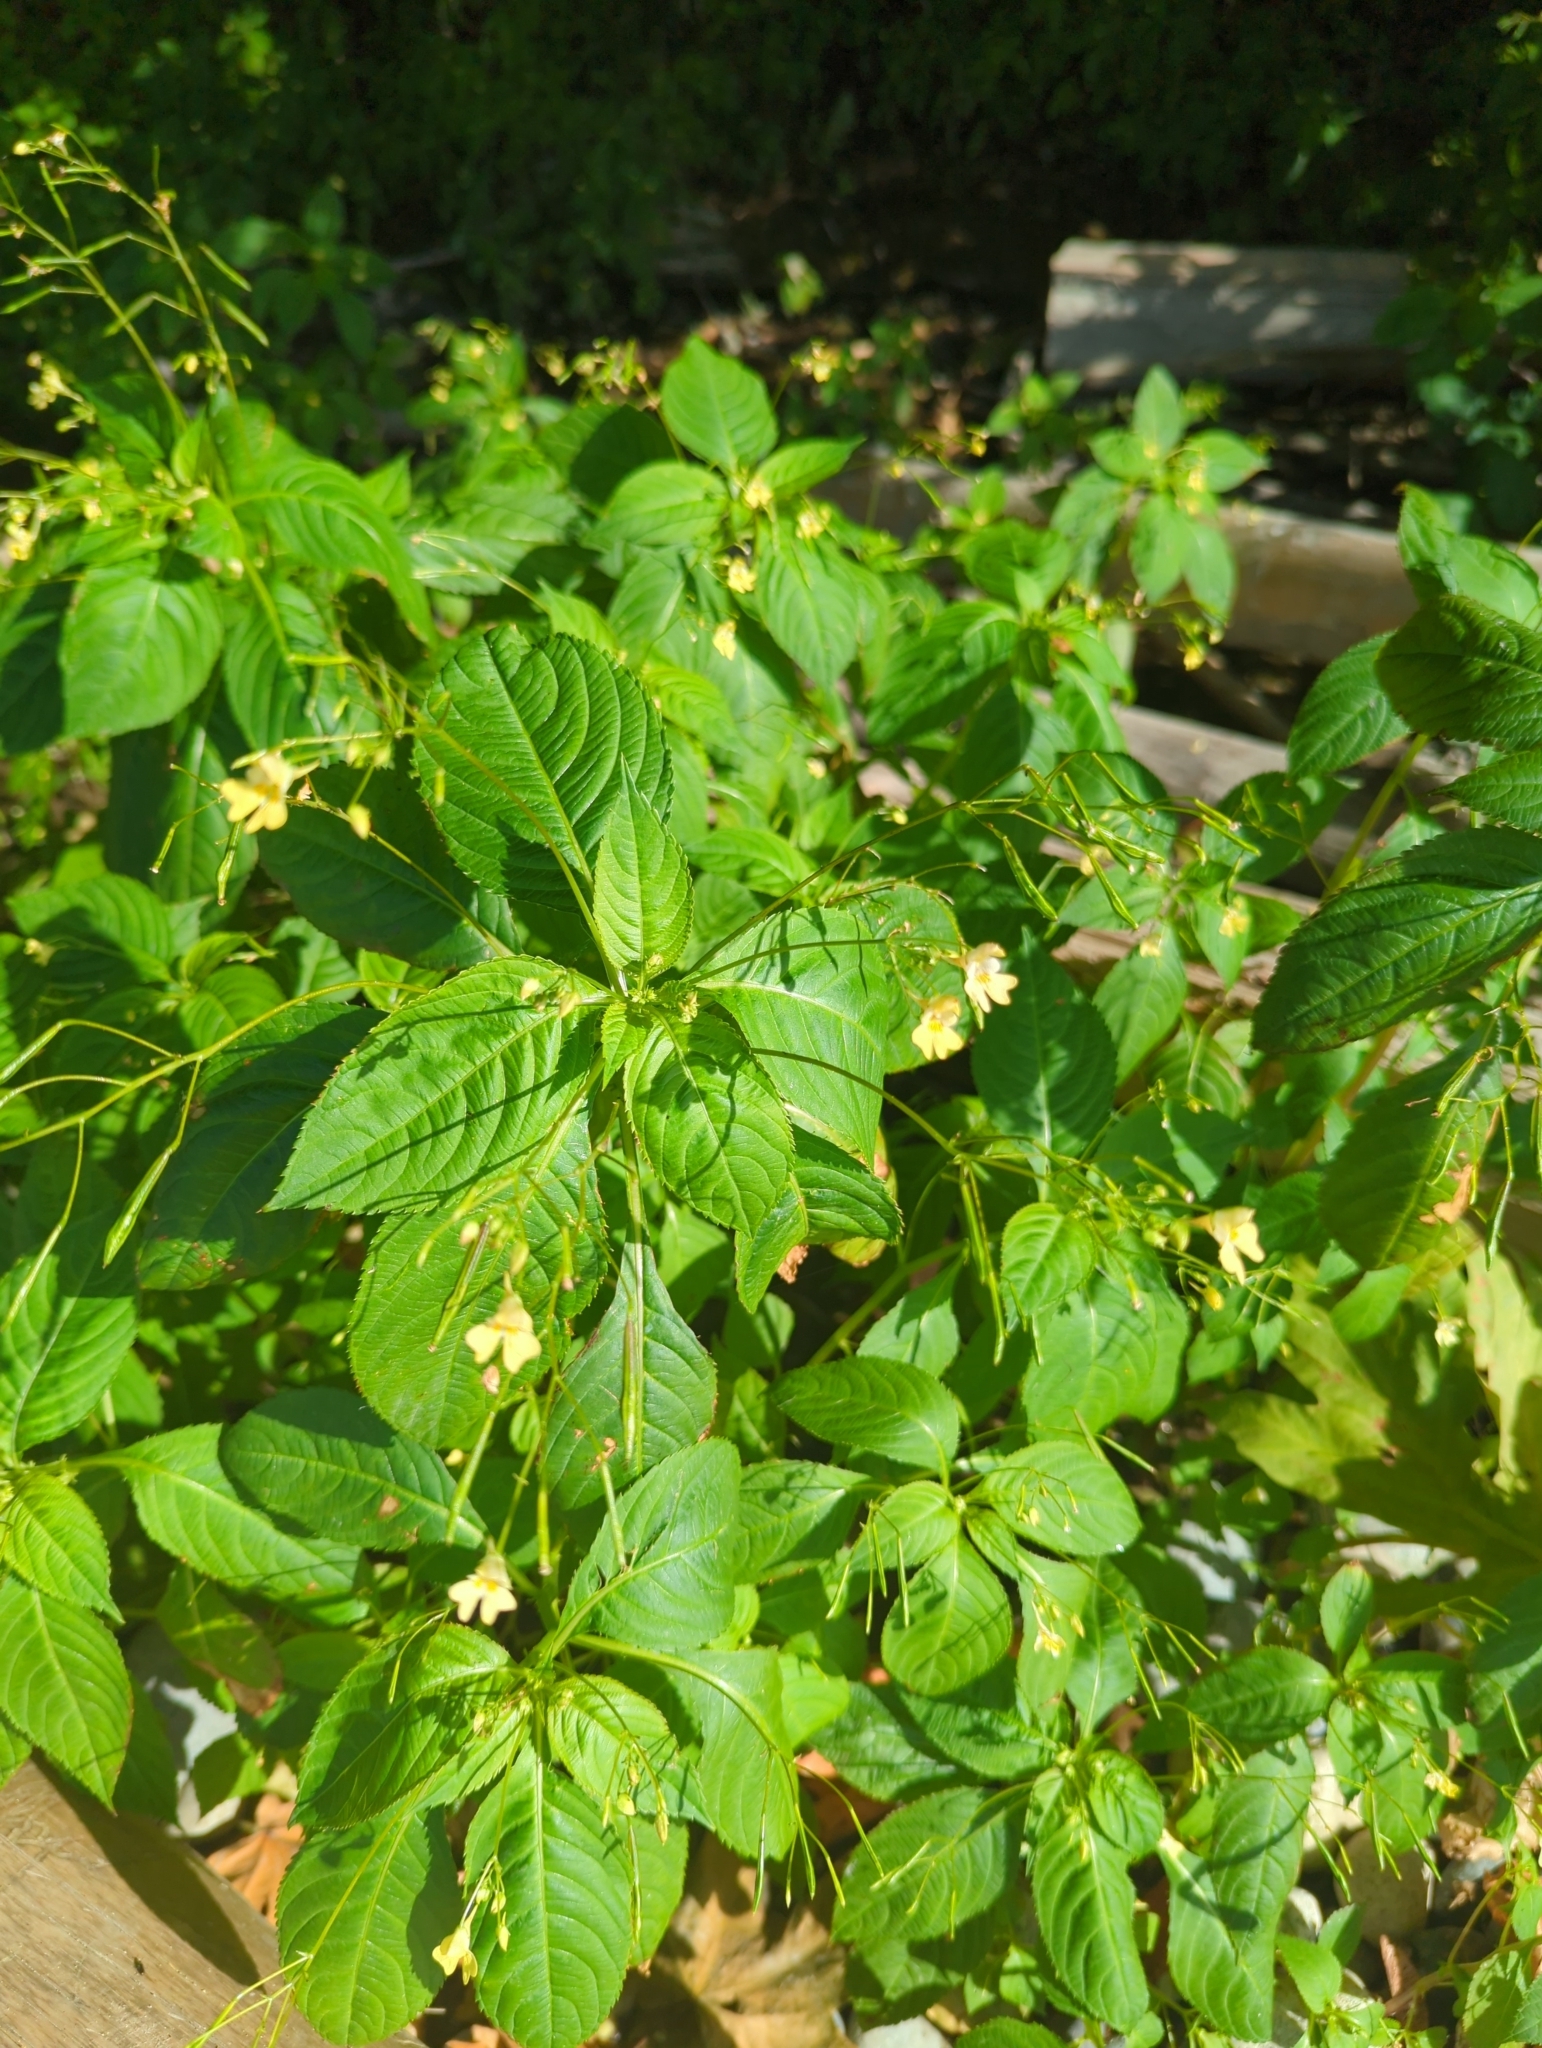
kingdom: Plantae
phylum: Tracheophyta
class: Magnoliopsida
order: Ericales
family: Balsaminaceae
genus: Impatiens
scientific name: Impatiens parviflora
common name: Small balsam
